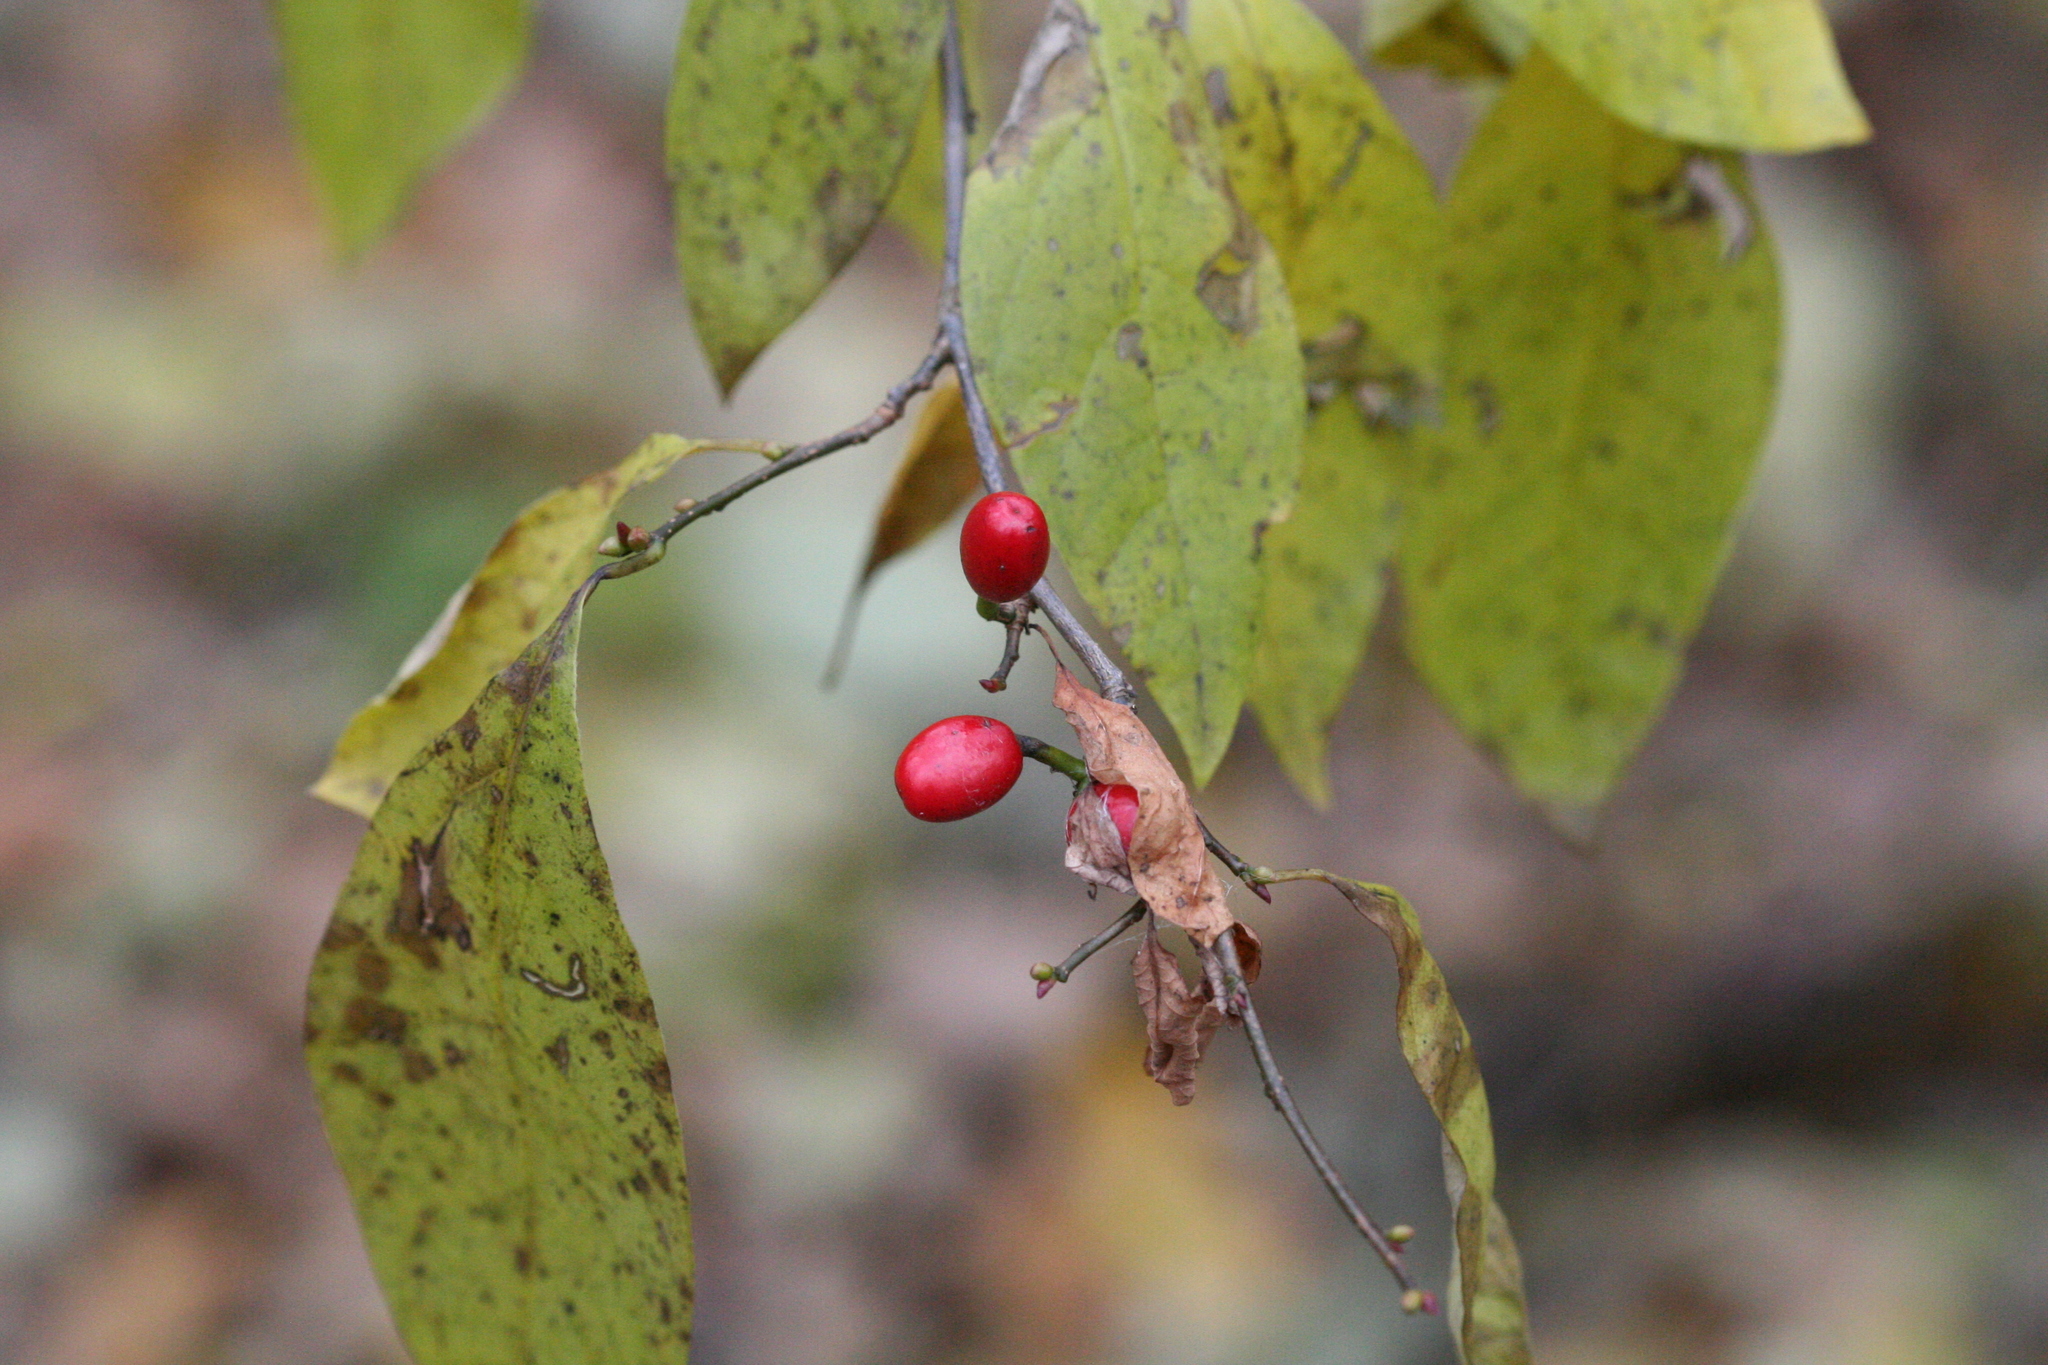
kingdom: Plantae
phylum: Tracheophyta
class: Magnoliopsida
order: Laurales
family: Lauraceae
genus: Lindera
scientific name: Lindera benzoin
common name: Spicebush
